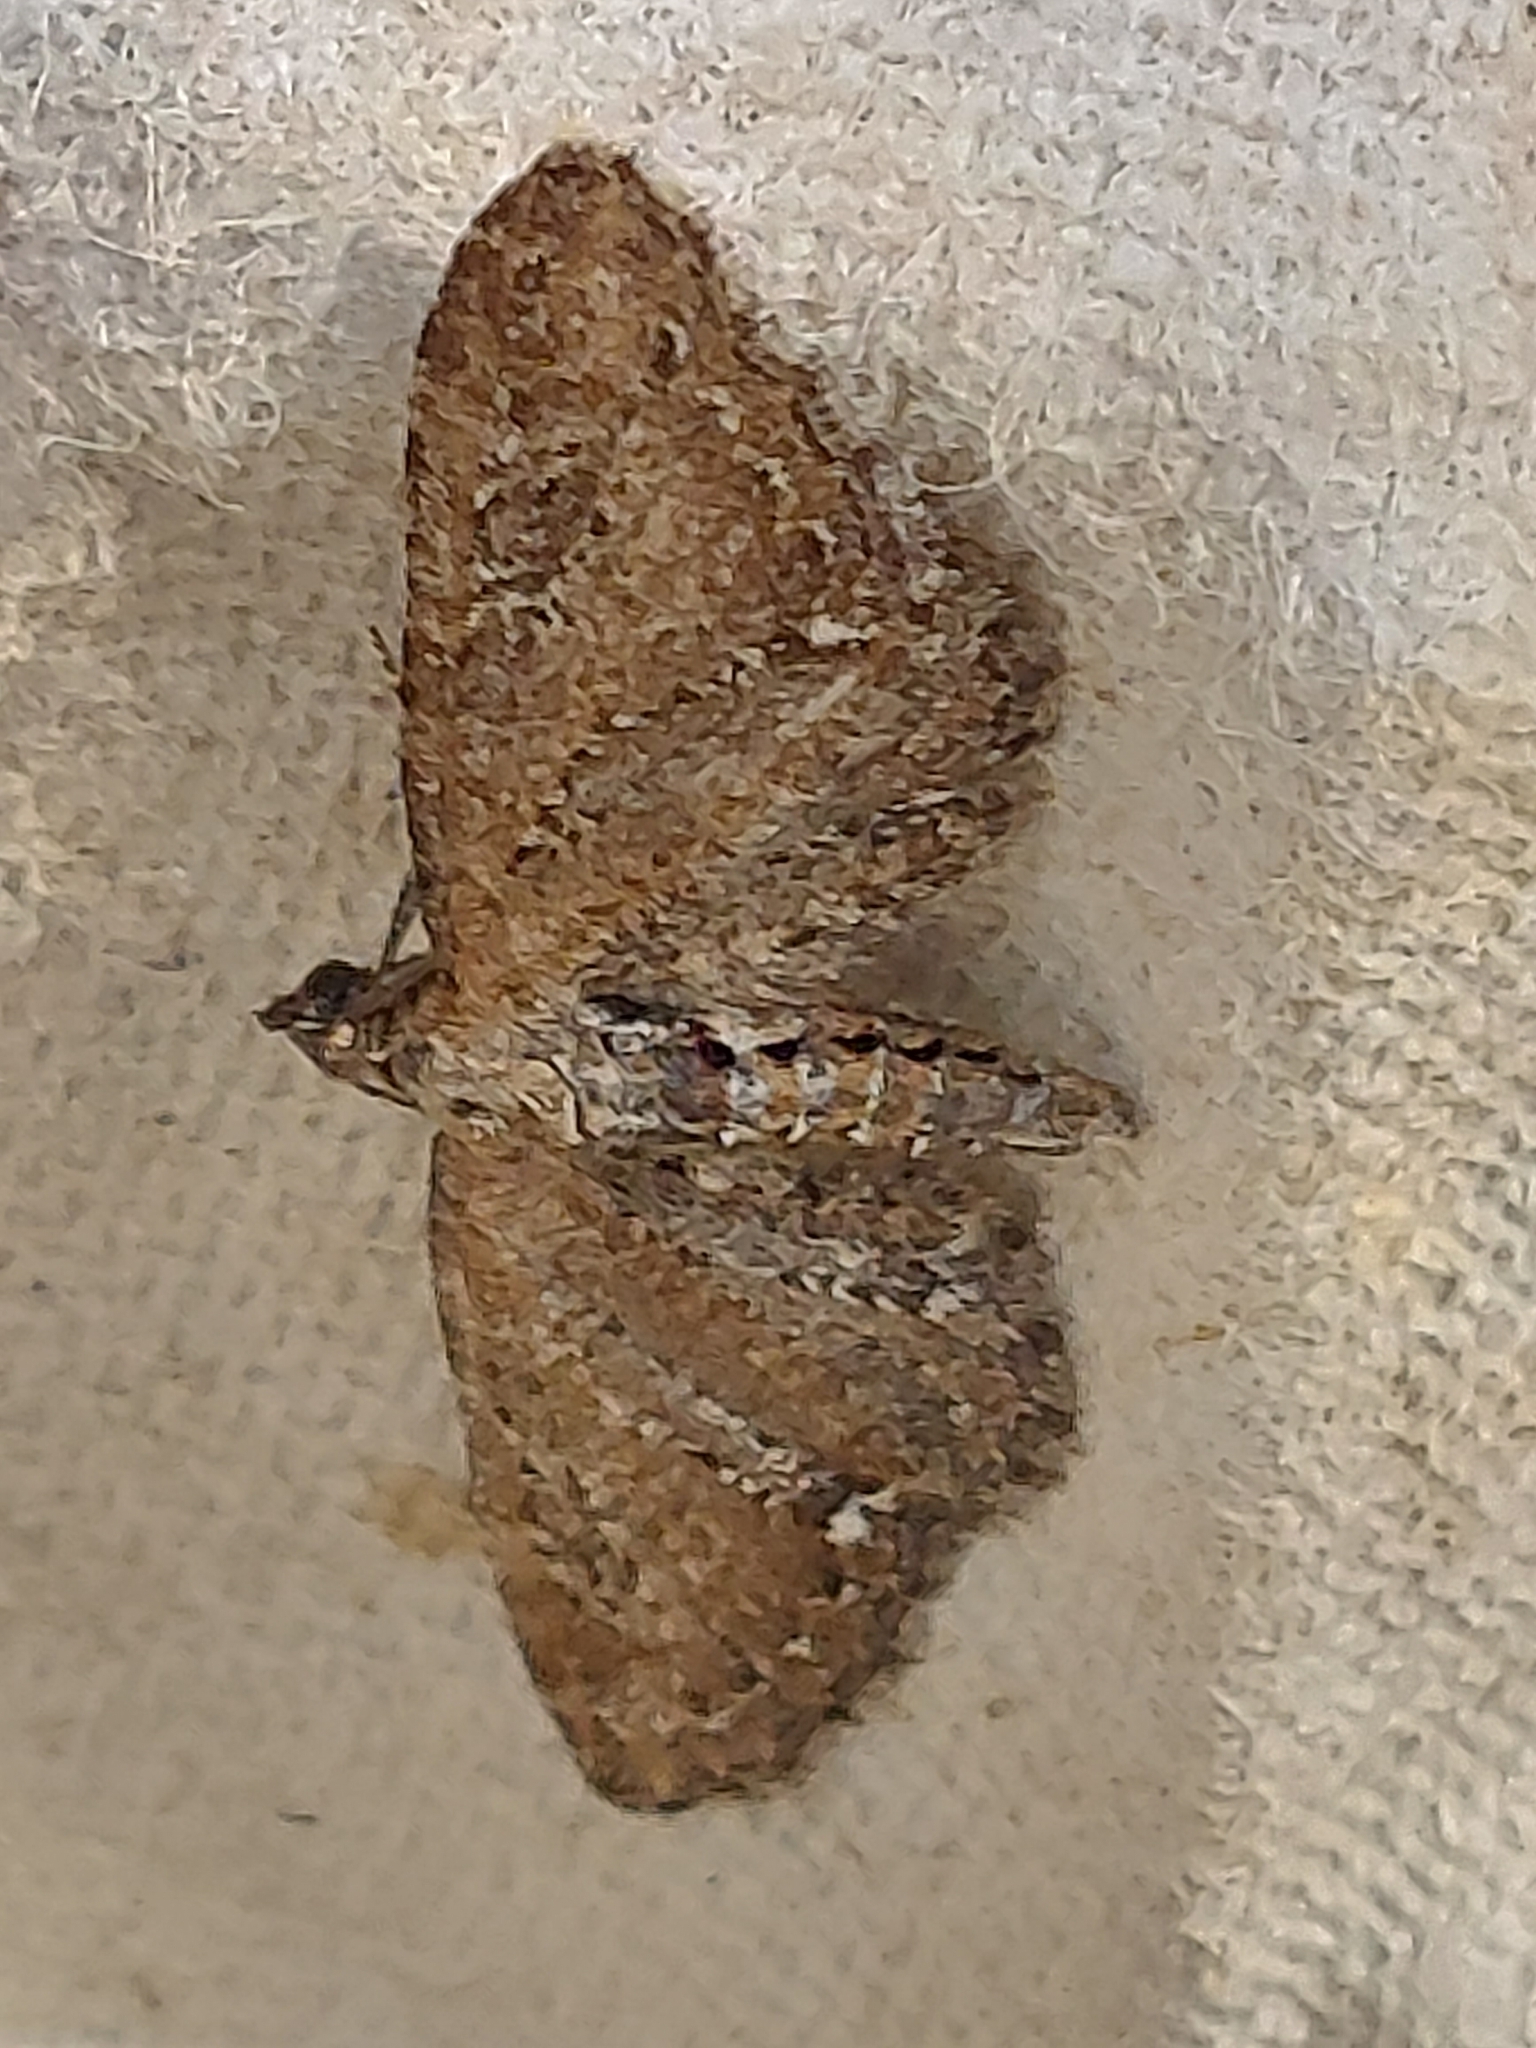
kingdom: Animalia
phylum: Arthropoda
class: Insecta
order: Lepidoptera
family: Geometridae
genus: Eupithecia
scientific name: Eupithecia vulgata
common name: Common pug
